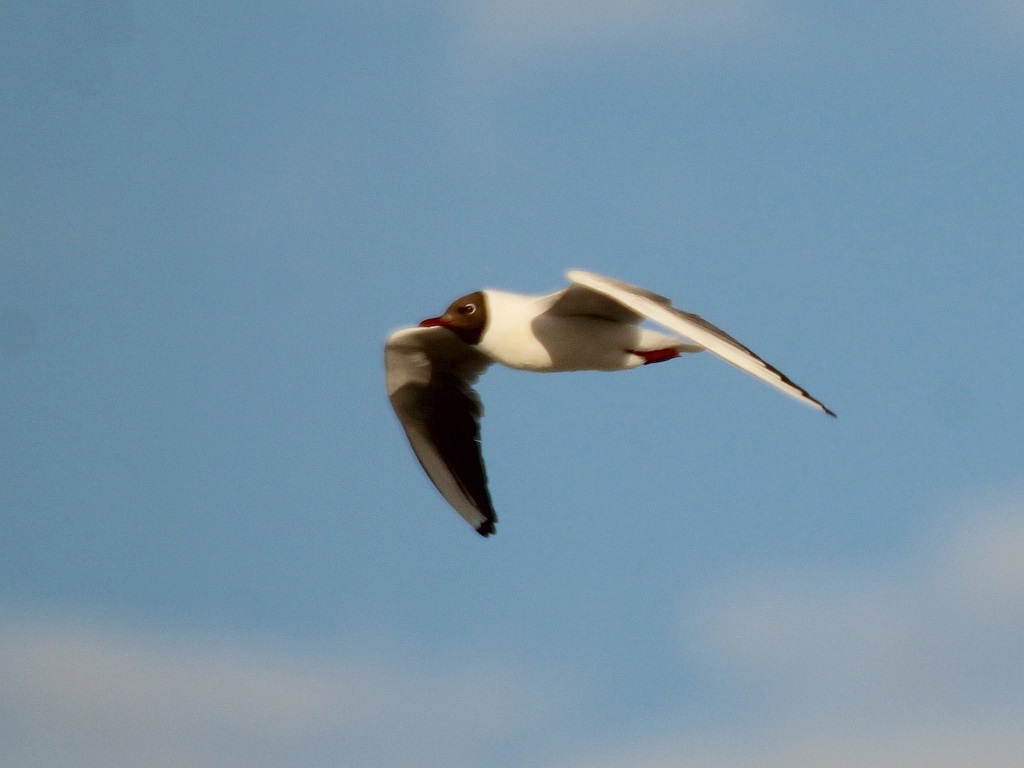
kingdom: Animalia
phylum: Chordata
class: Aves
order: Charadriiformes
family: Laridae
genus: Chroicocephalus
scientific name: Chroicocephalus ridibundus
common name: Black-headed gull
